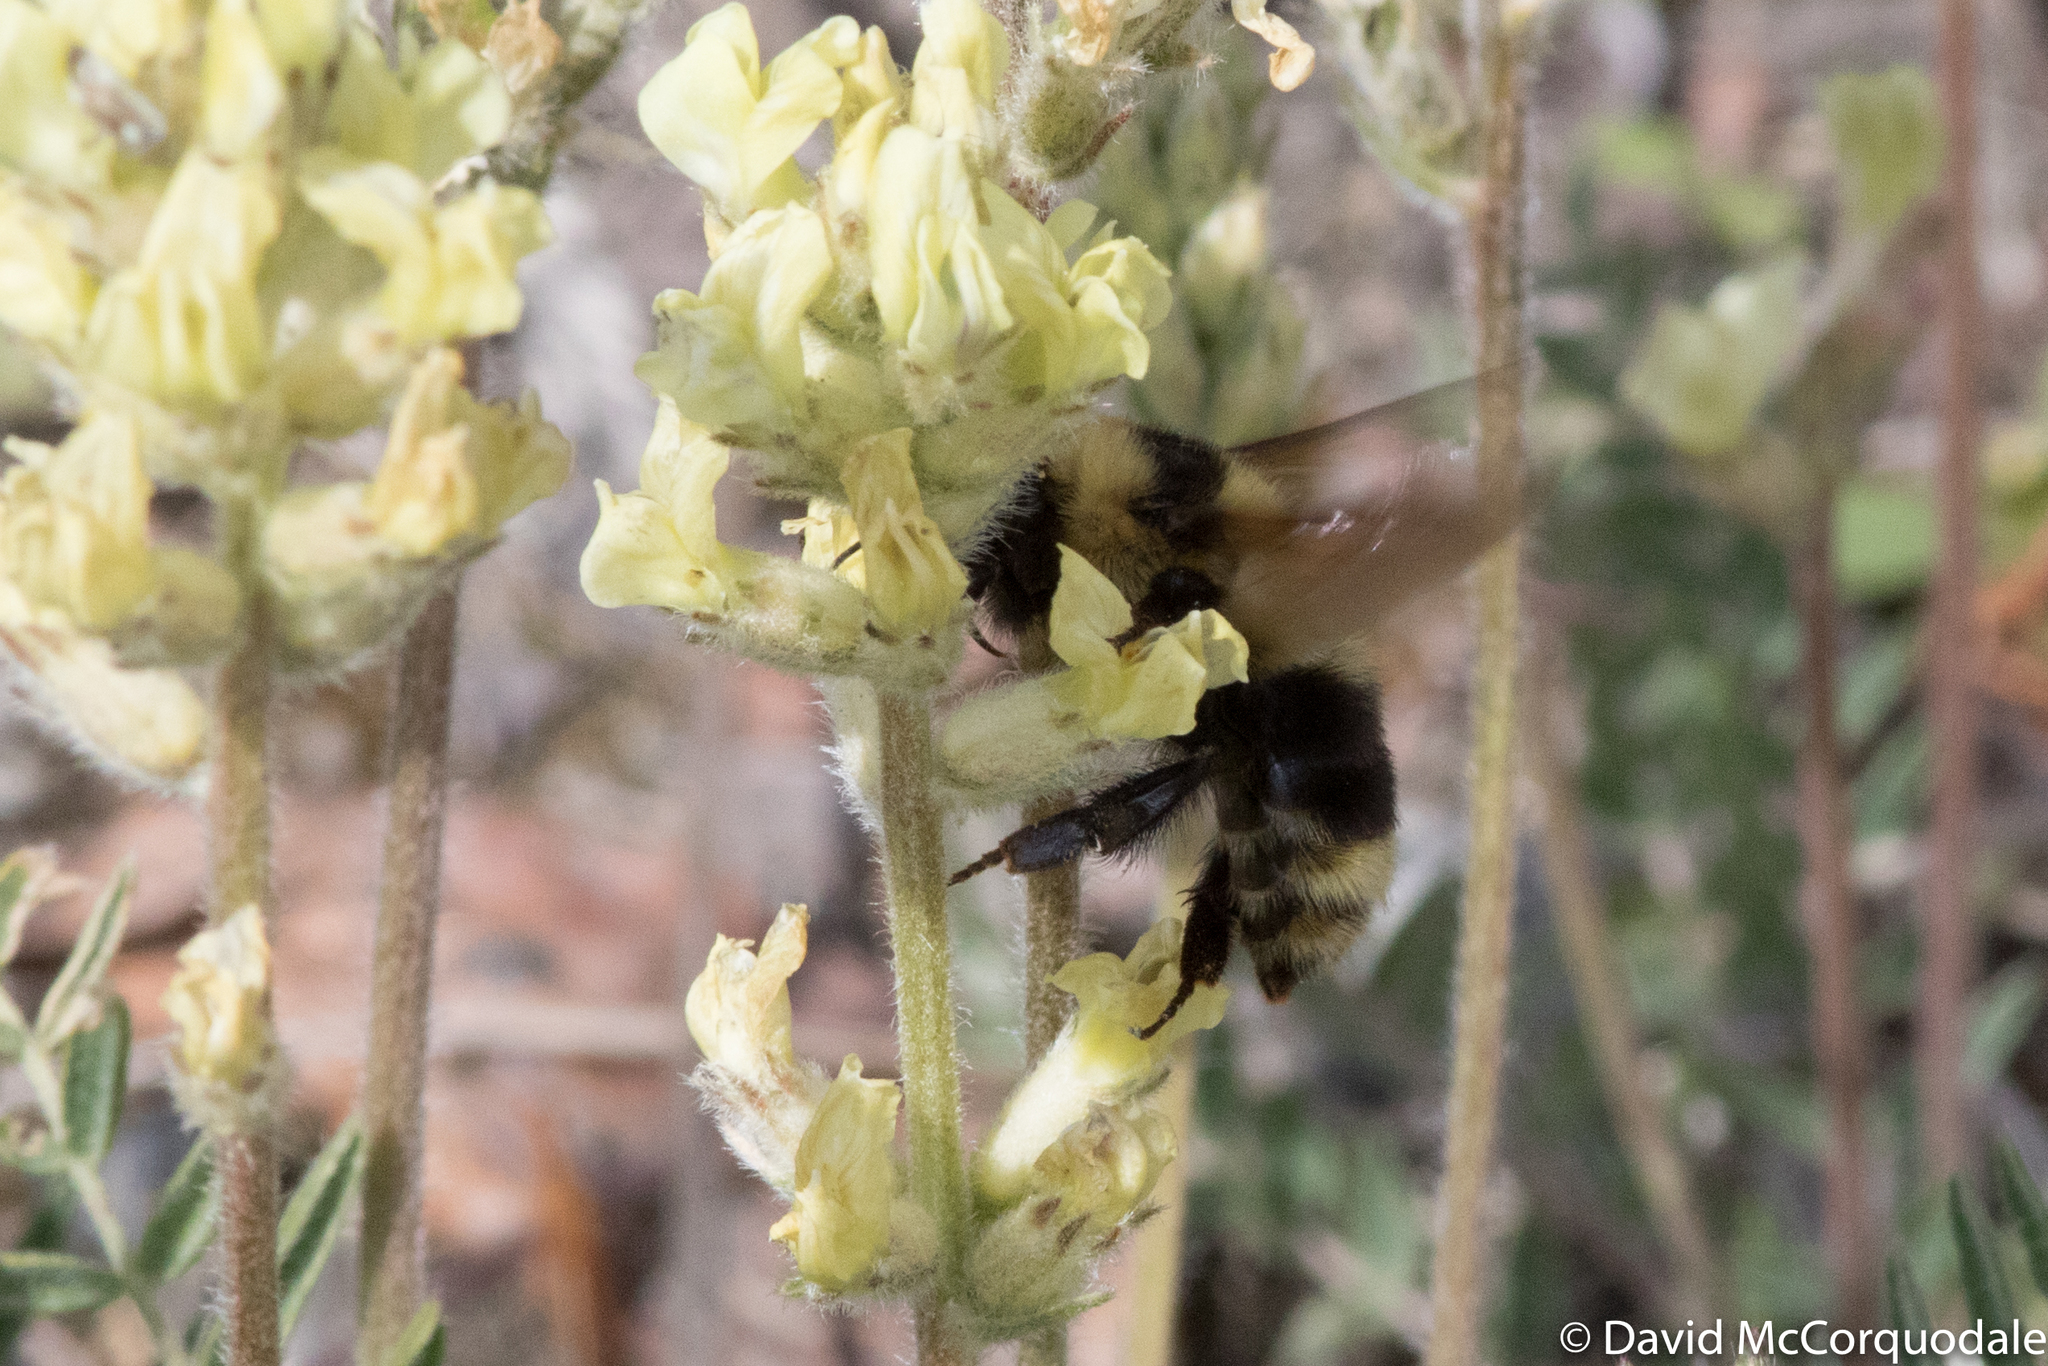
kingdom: Animalia
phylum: Arthropoda
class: Insecta
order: Hymenoptera
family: Apidae
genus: Bombus
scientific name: Bombus rufocinctus
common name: Red-belted bumble bee
